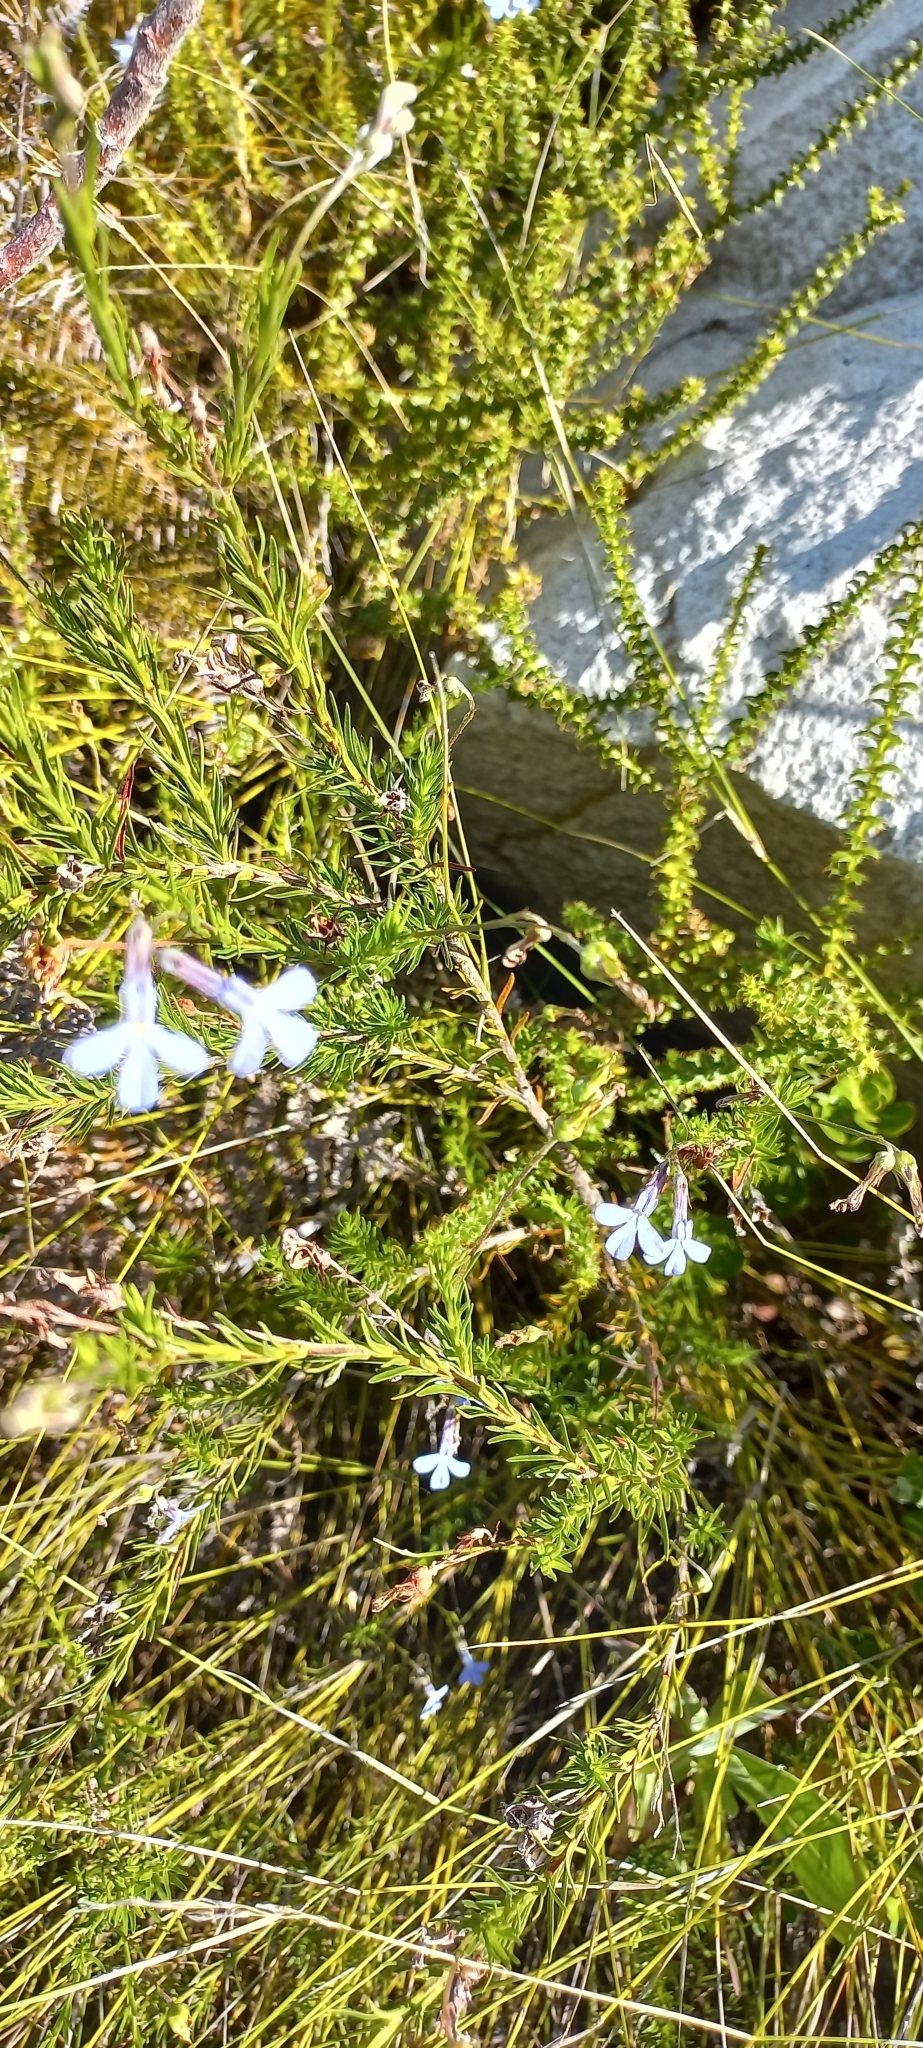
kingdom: Plantae
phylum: Tracheophyta
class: Magnoliopsida
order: Asterales
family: Campanulaceae
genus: Lobelia
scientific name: Lobelia pinifolia
